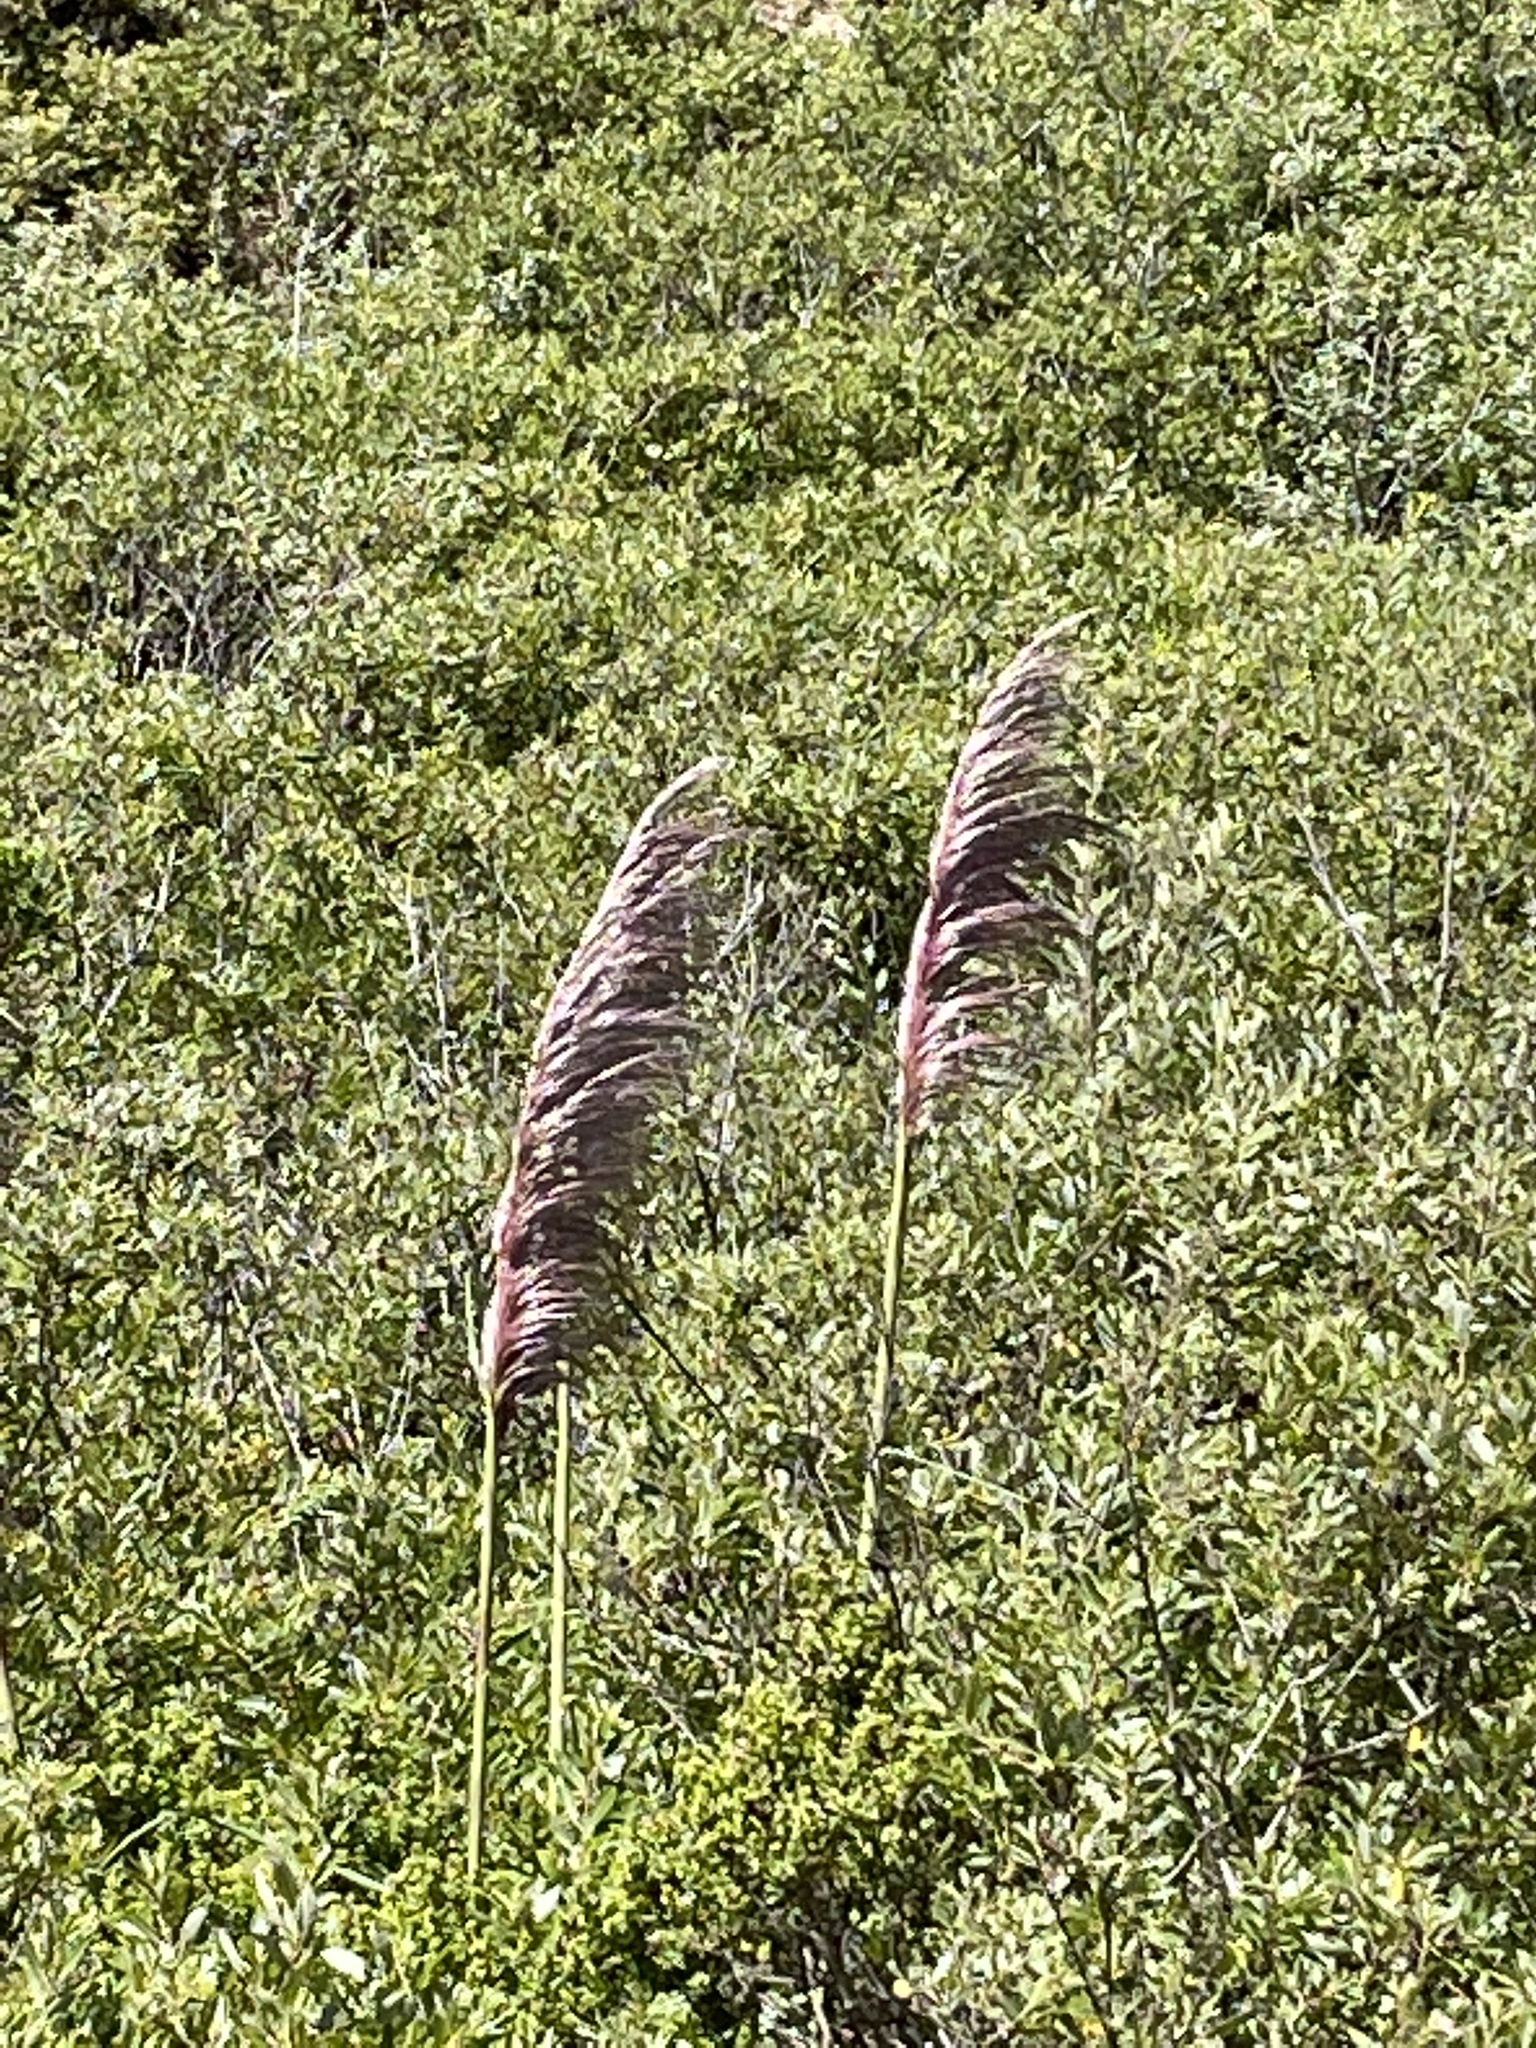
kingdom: Plantae
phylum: Tracheophyta
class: Liliopsida
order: Poales
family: Poaceae
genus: Cortaderia
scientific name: Cortaderia jubata
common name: Purple pampas grass
